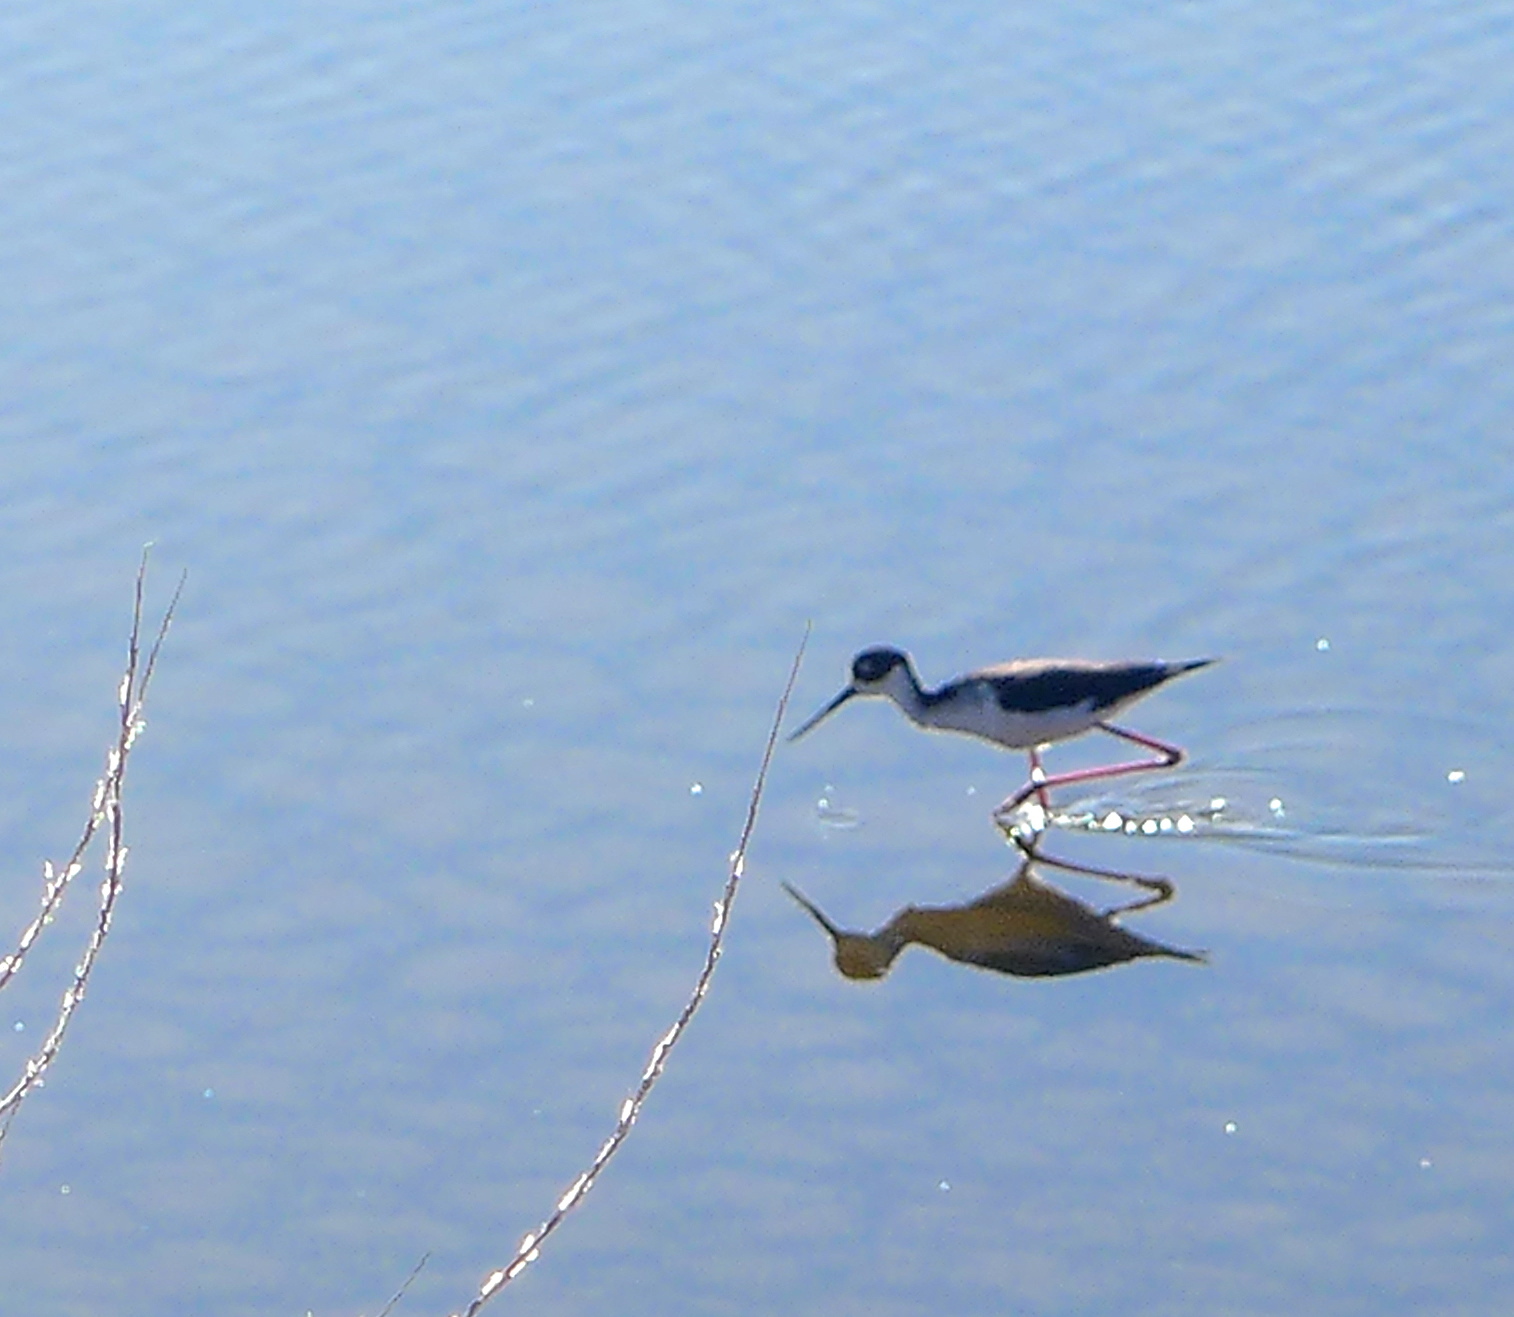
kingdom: Animalia
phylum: Chordata
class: Aves
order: Charadriiformes
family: Recurvirostridae
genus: Himantopus
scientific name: Himantopus mexicanus
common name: Black-necked stilt
